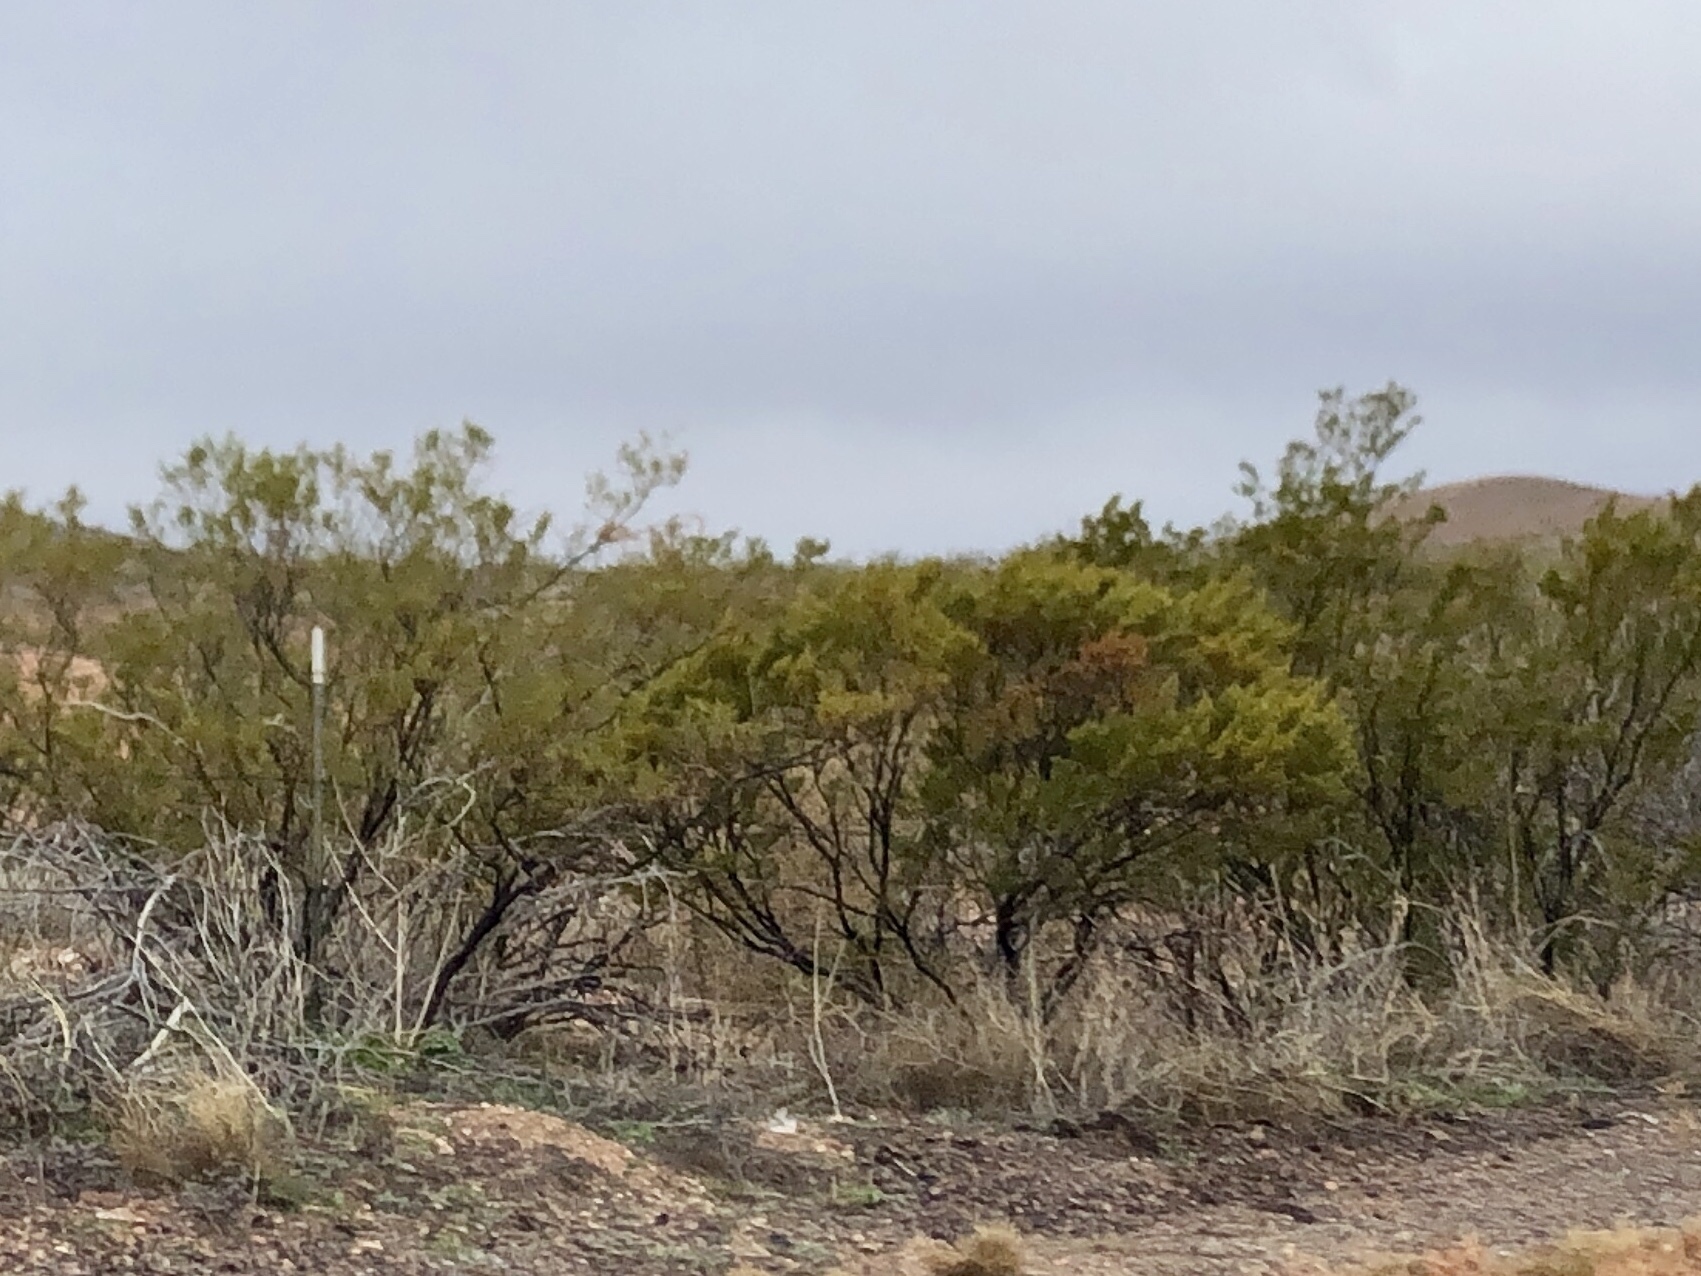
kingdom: Plantae
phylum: Tracheophyta
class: Magnoliopsida
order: Zygophyllales
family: Zygophyllaceae
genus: Larrea
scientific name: Larrea tridentata
